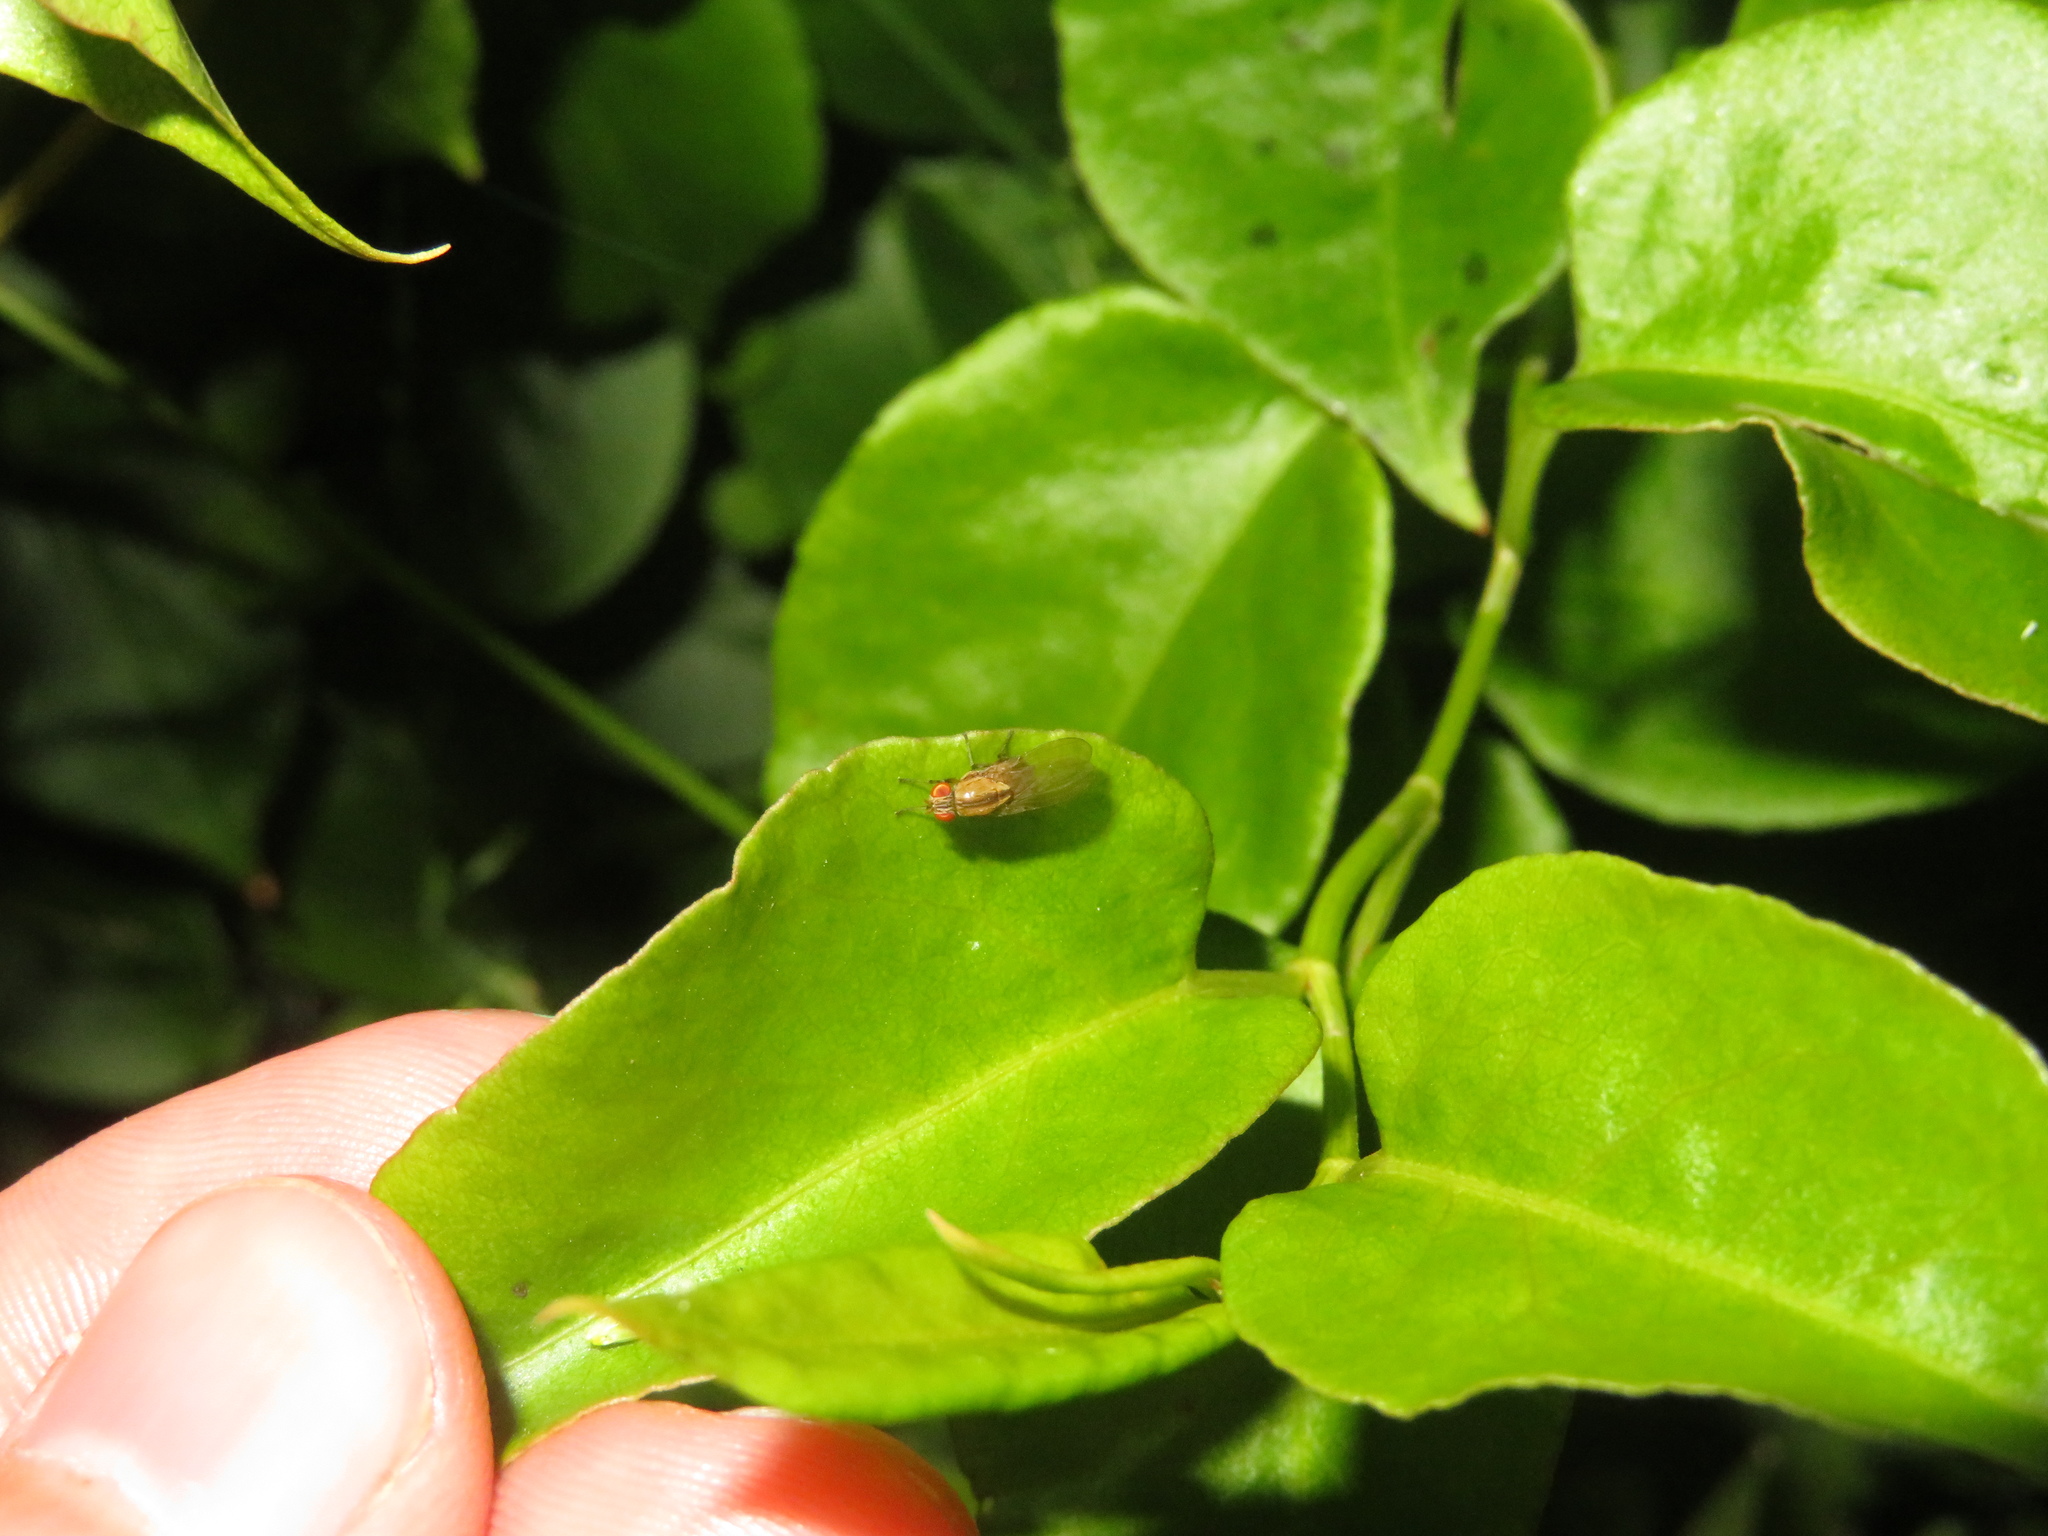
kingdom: Animalia
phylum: Arthropoda
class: Insecta
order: Diptera
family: Lauxaniidae
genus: Sapromyza
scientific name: Sapromyza neozelandica
